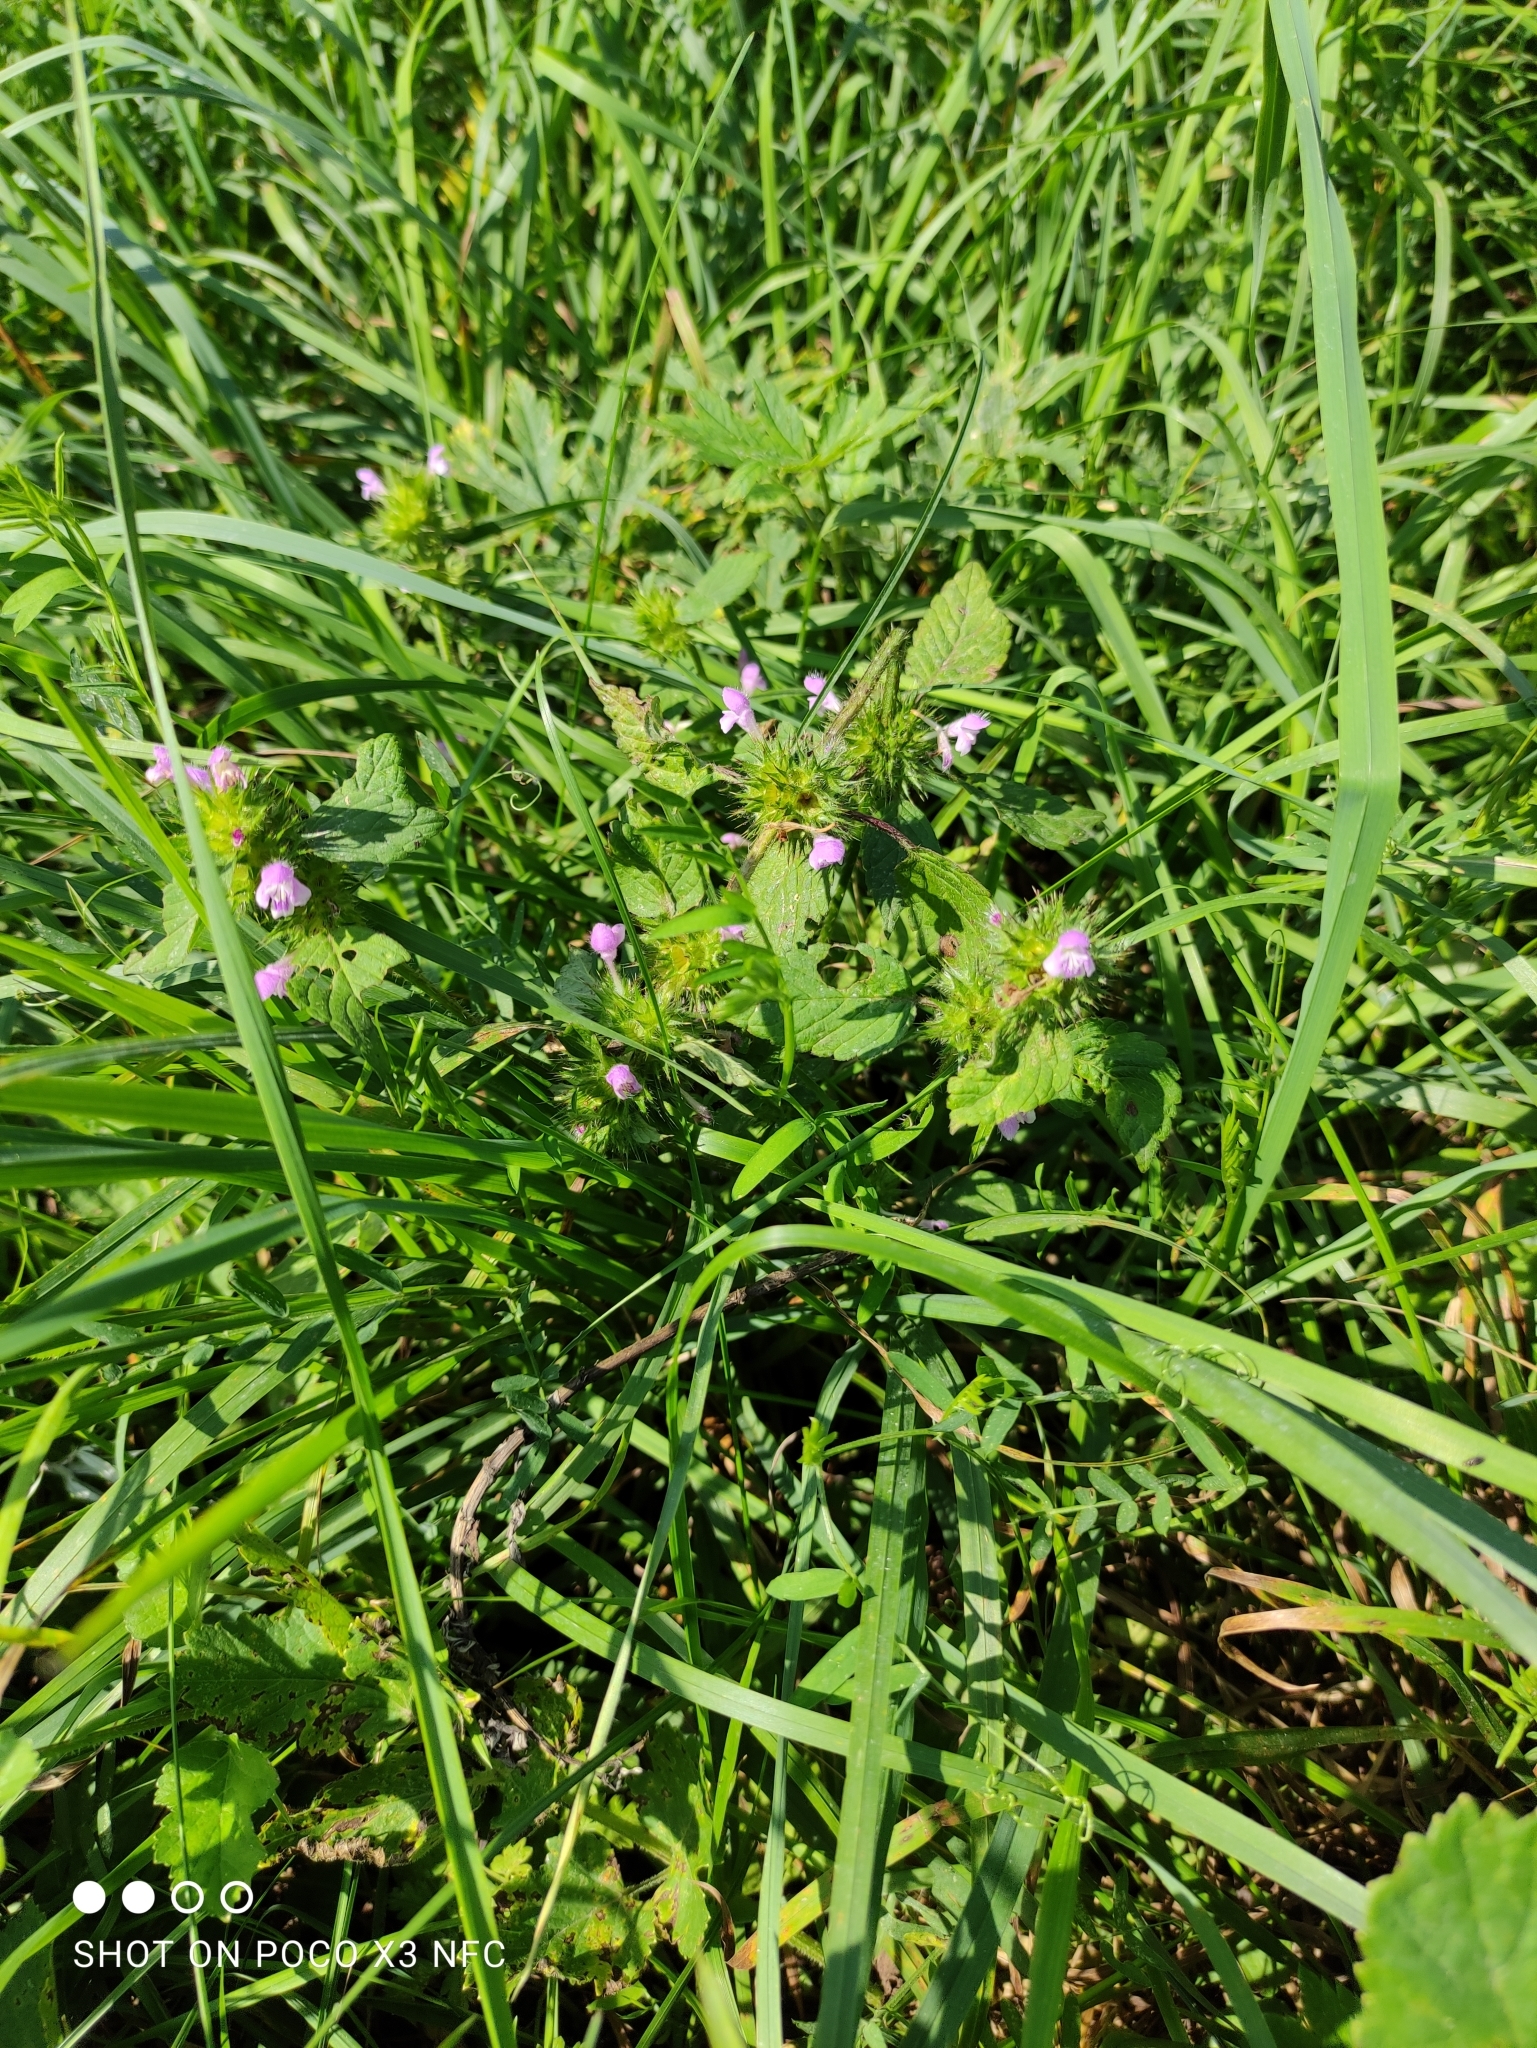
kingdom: Plantae
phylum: Tracheophyta
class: Magnoliopsida
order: Lamiales
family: Lamiaceae
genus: Galeopsis
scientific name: Galeopsis bifida
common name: Bifid hemp-nettle
